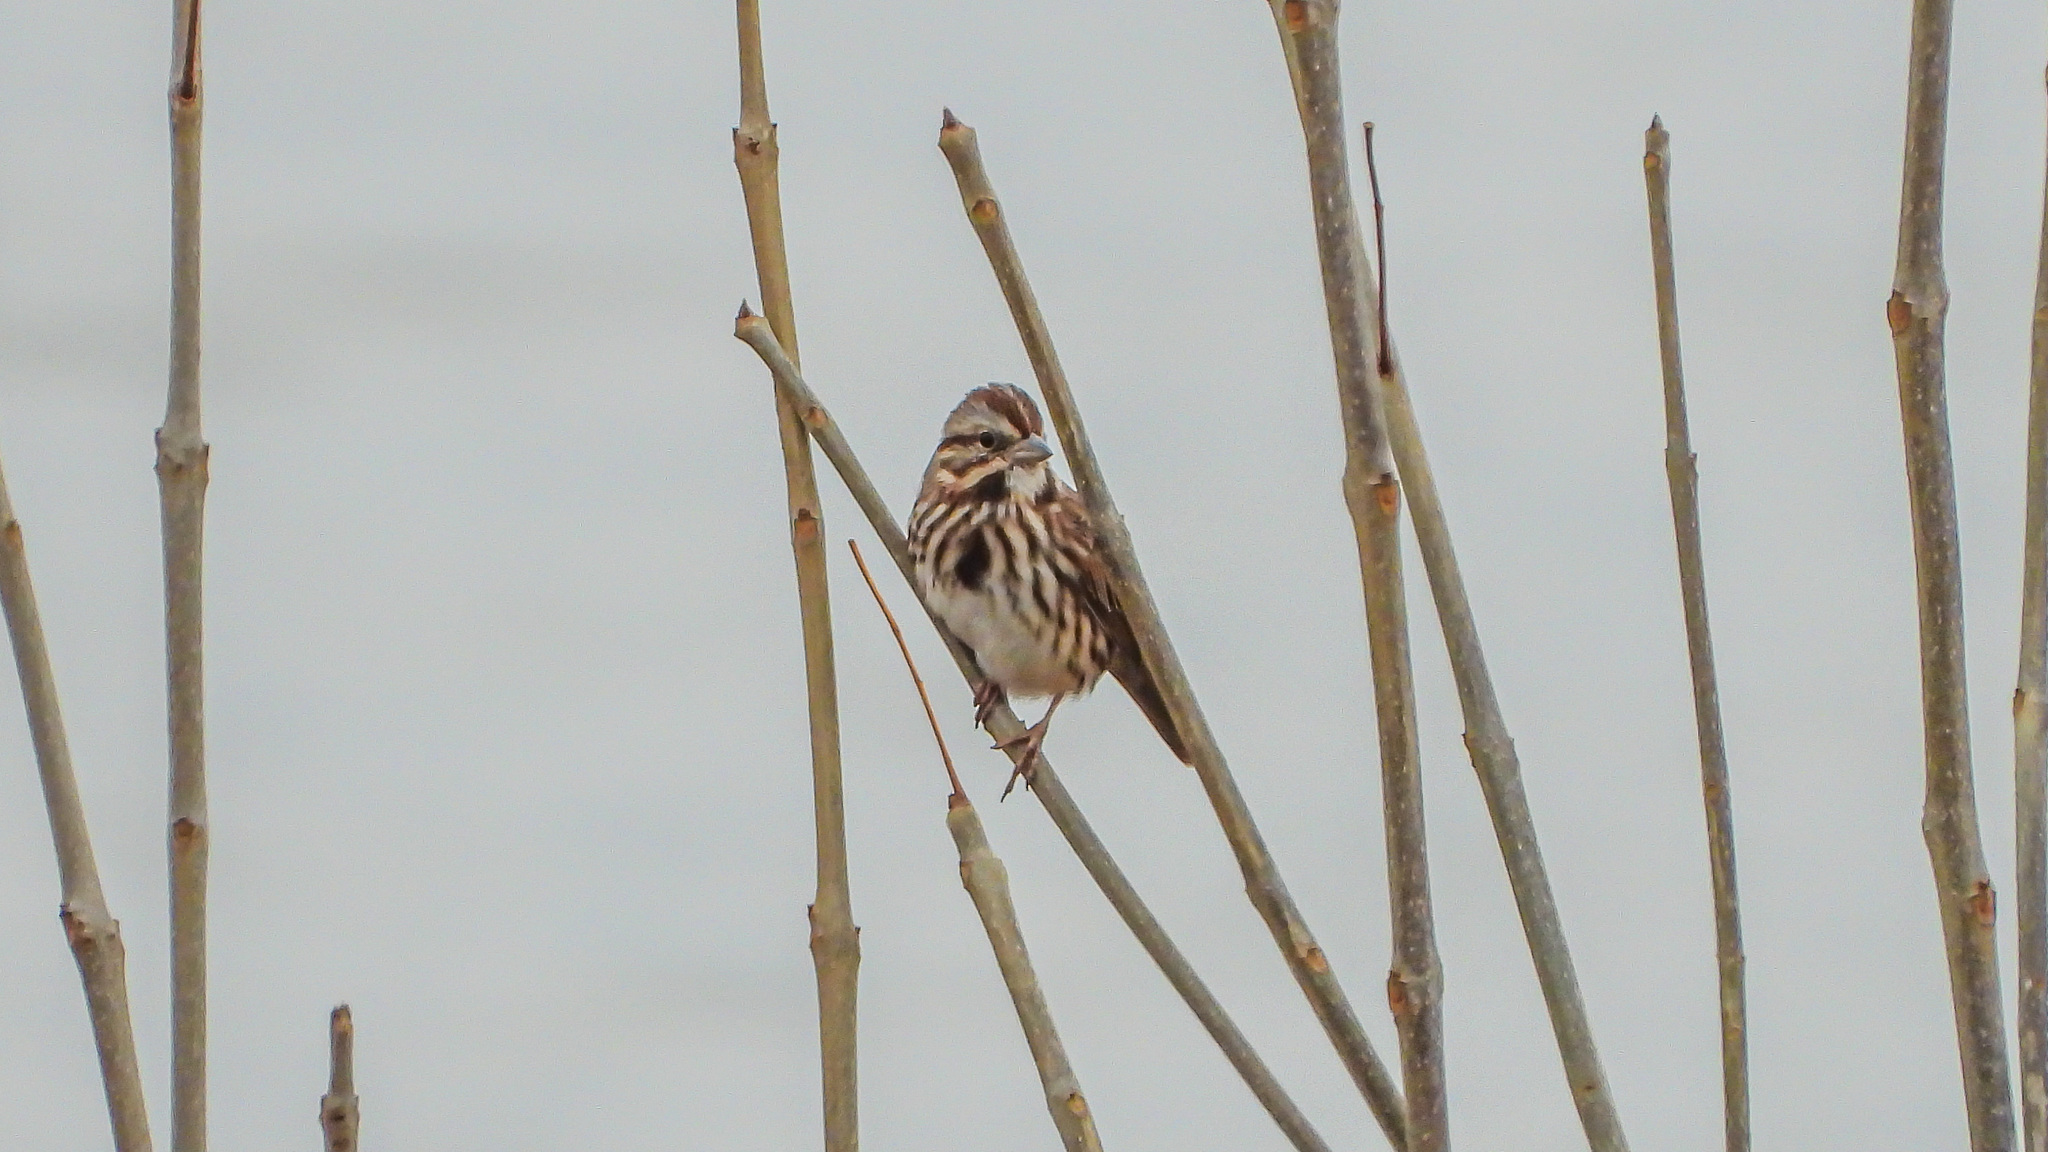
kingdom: Animalia
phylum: Chordata
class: Aves
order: Passeriformes
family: Passerellidae
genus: Melospiza
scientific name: Melospiza melodia
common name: Song sparrow
